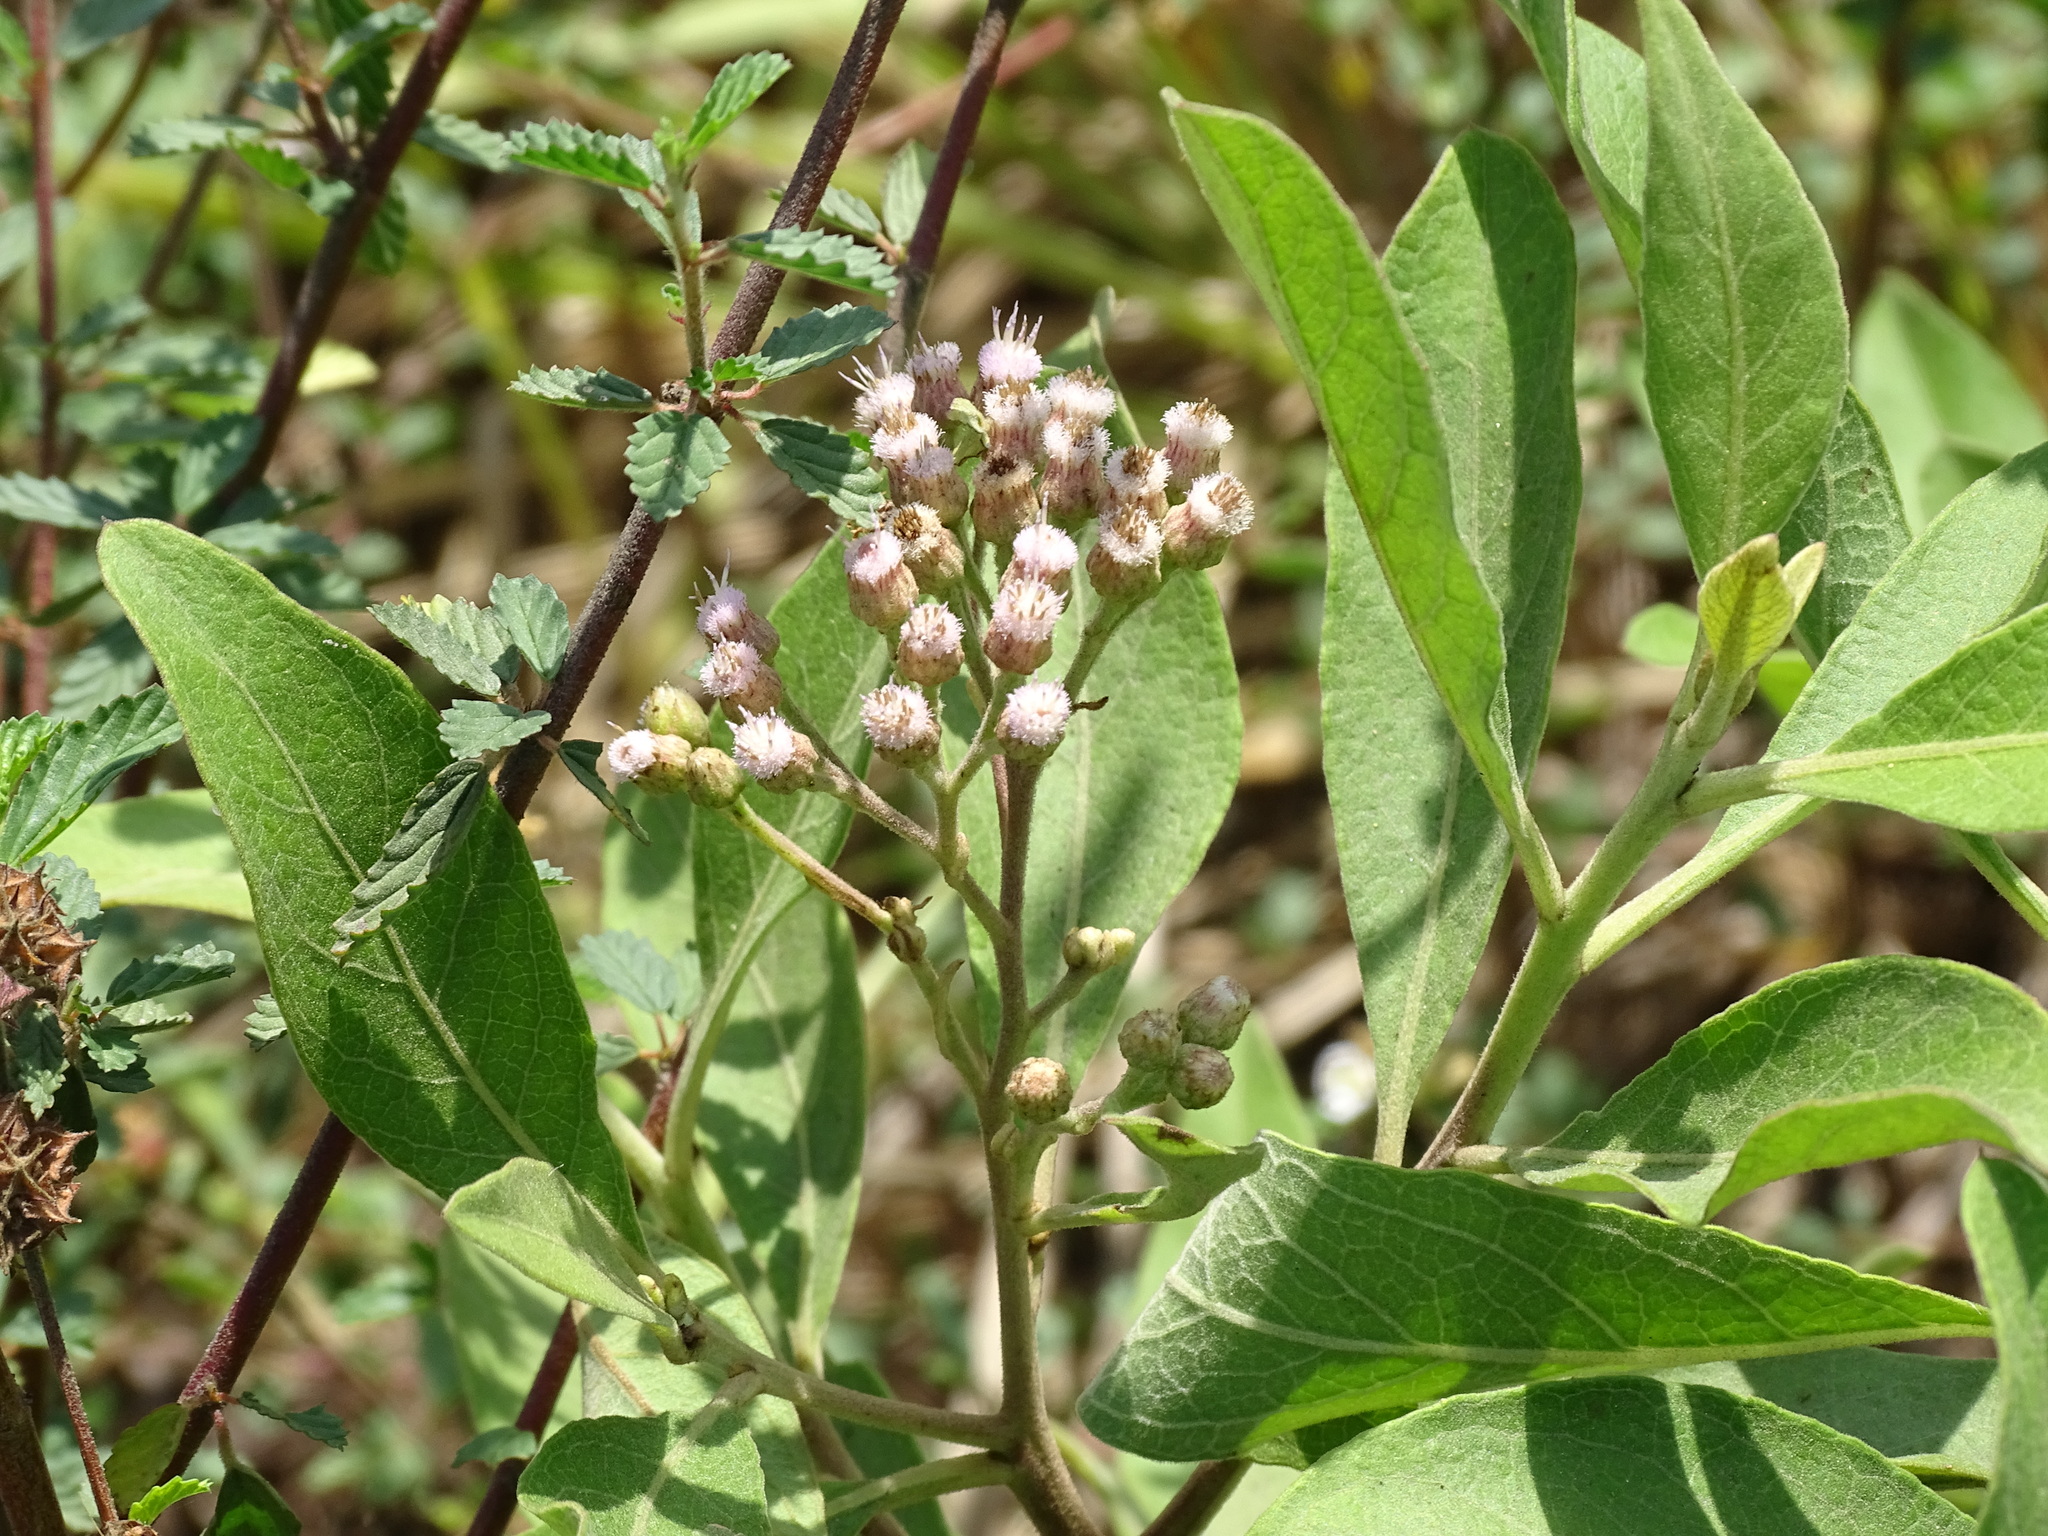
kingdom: Plantae
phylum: Tracheophyta
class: Magnoliopsida
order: Asterales
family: Asteraceae
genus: Pluchea
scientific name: Pluchea carolinensis
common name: Marsh fleabane
